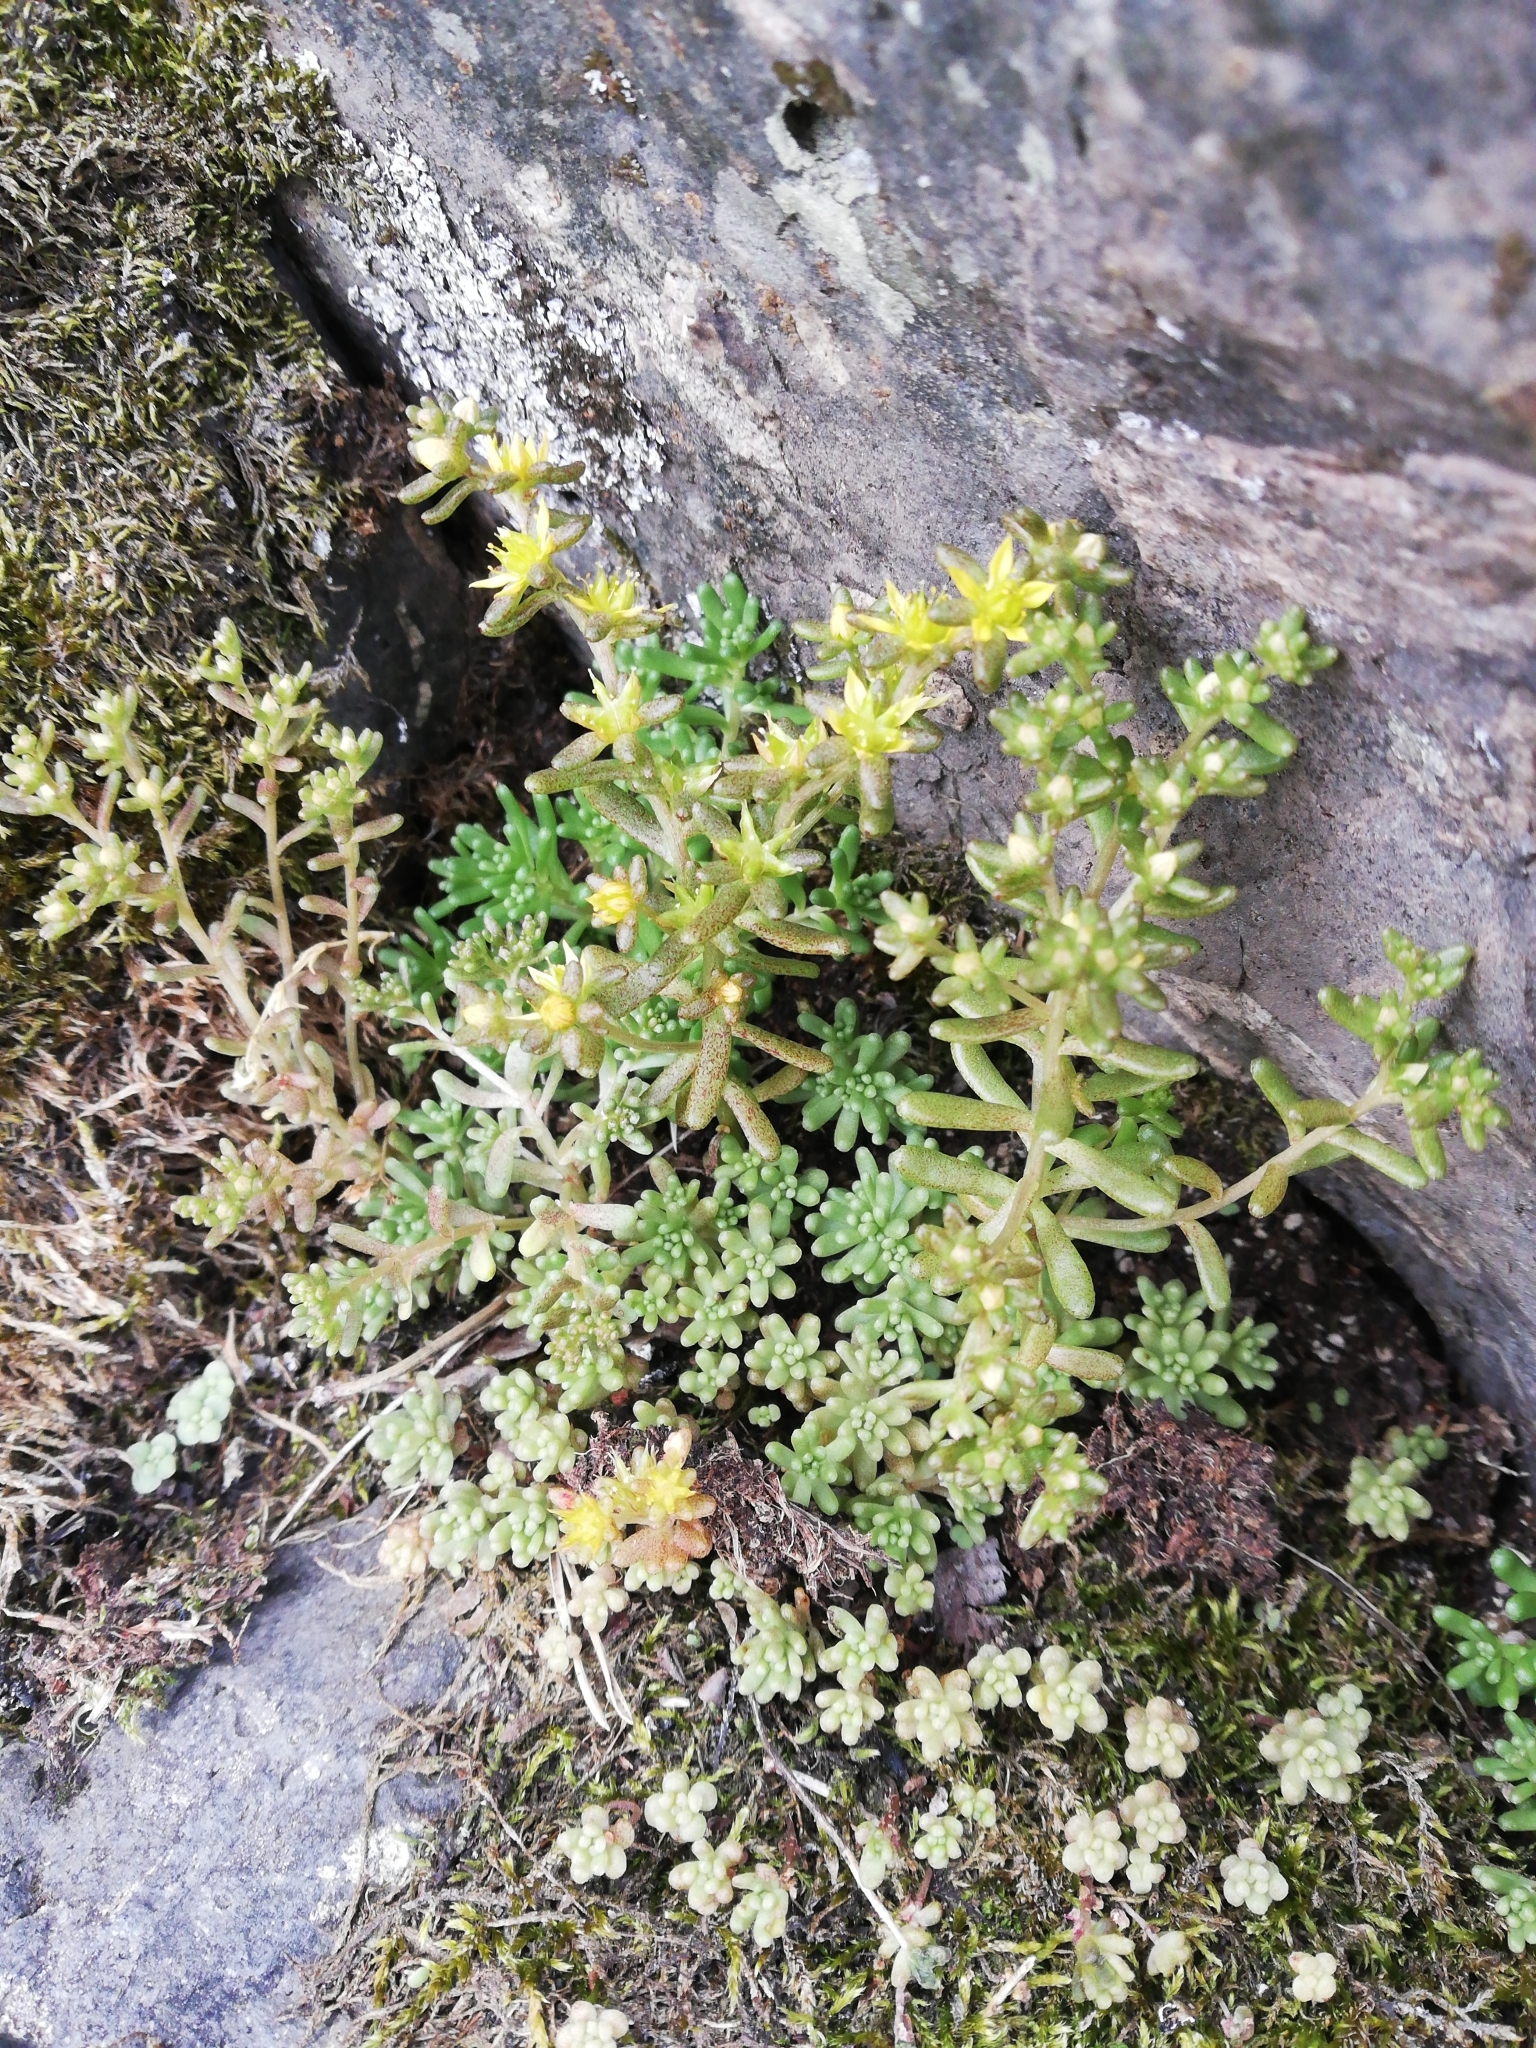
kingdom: Plantae
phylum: Tracheophyta
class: Magnoliopsida
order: Saxifragales
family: Crassulaceae
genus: Sedum
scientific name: Sedum annuum
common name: Annual stonecrop
